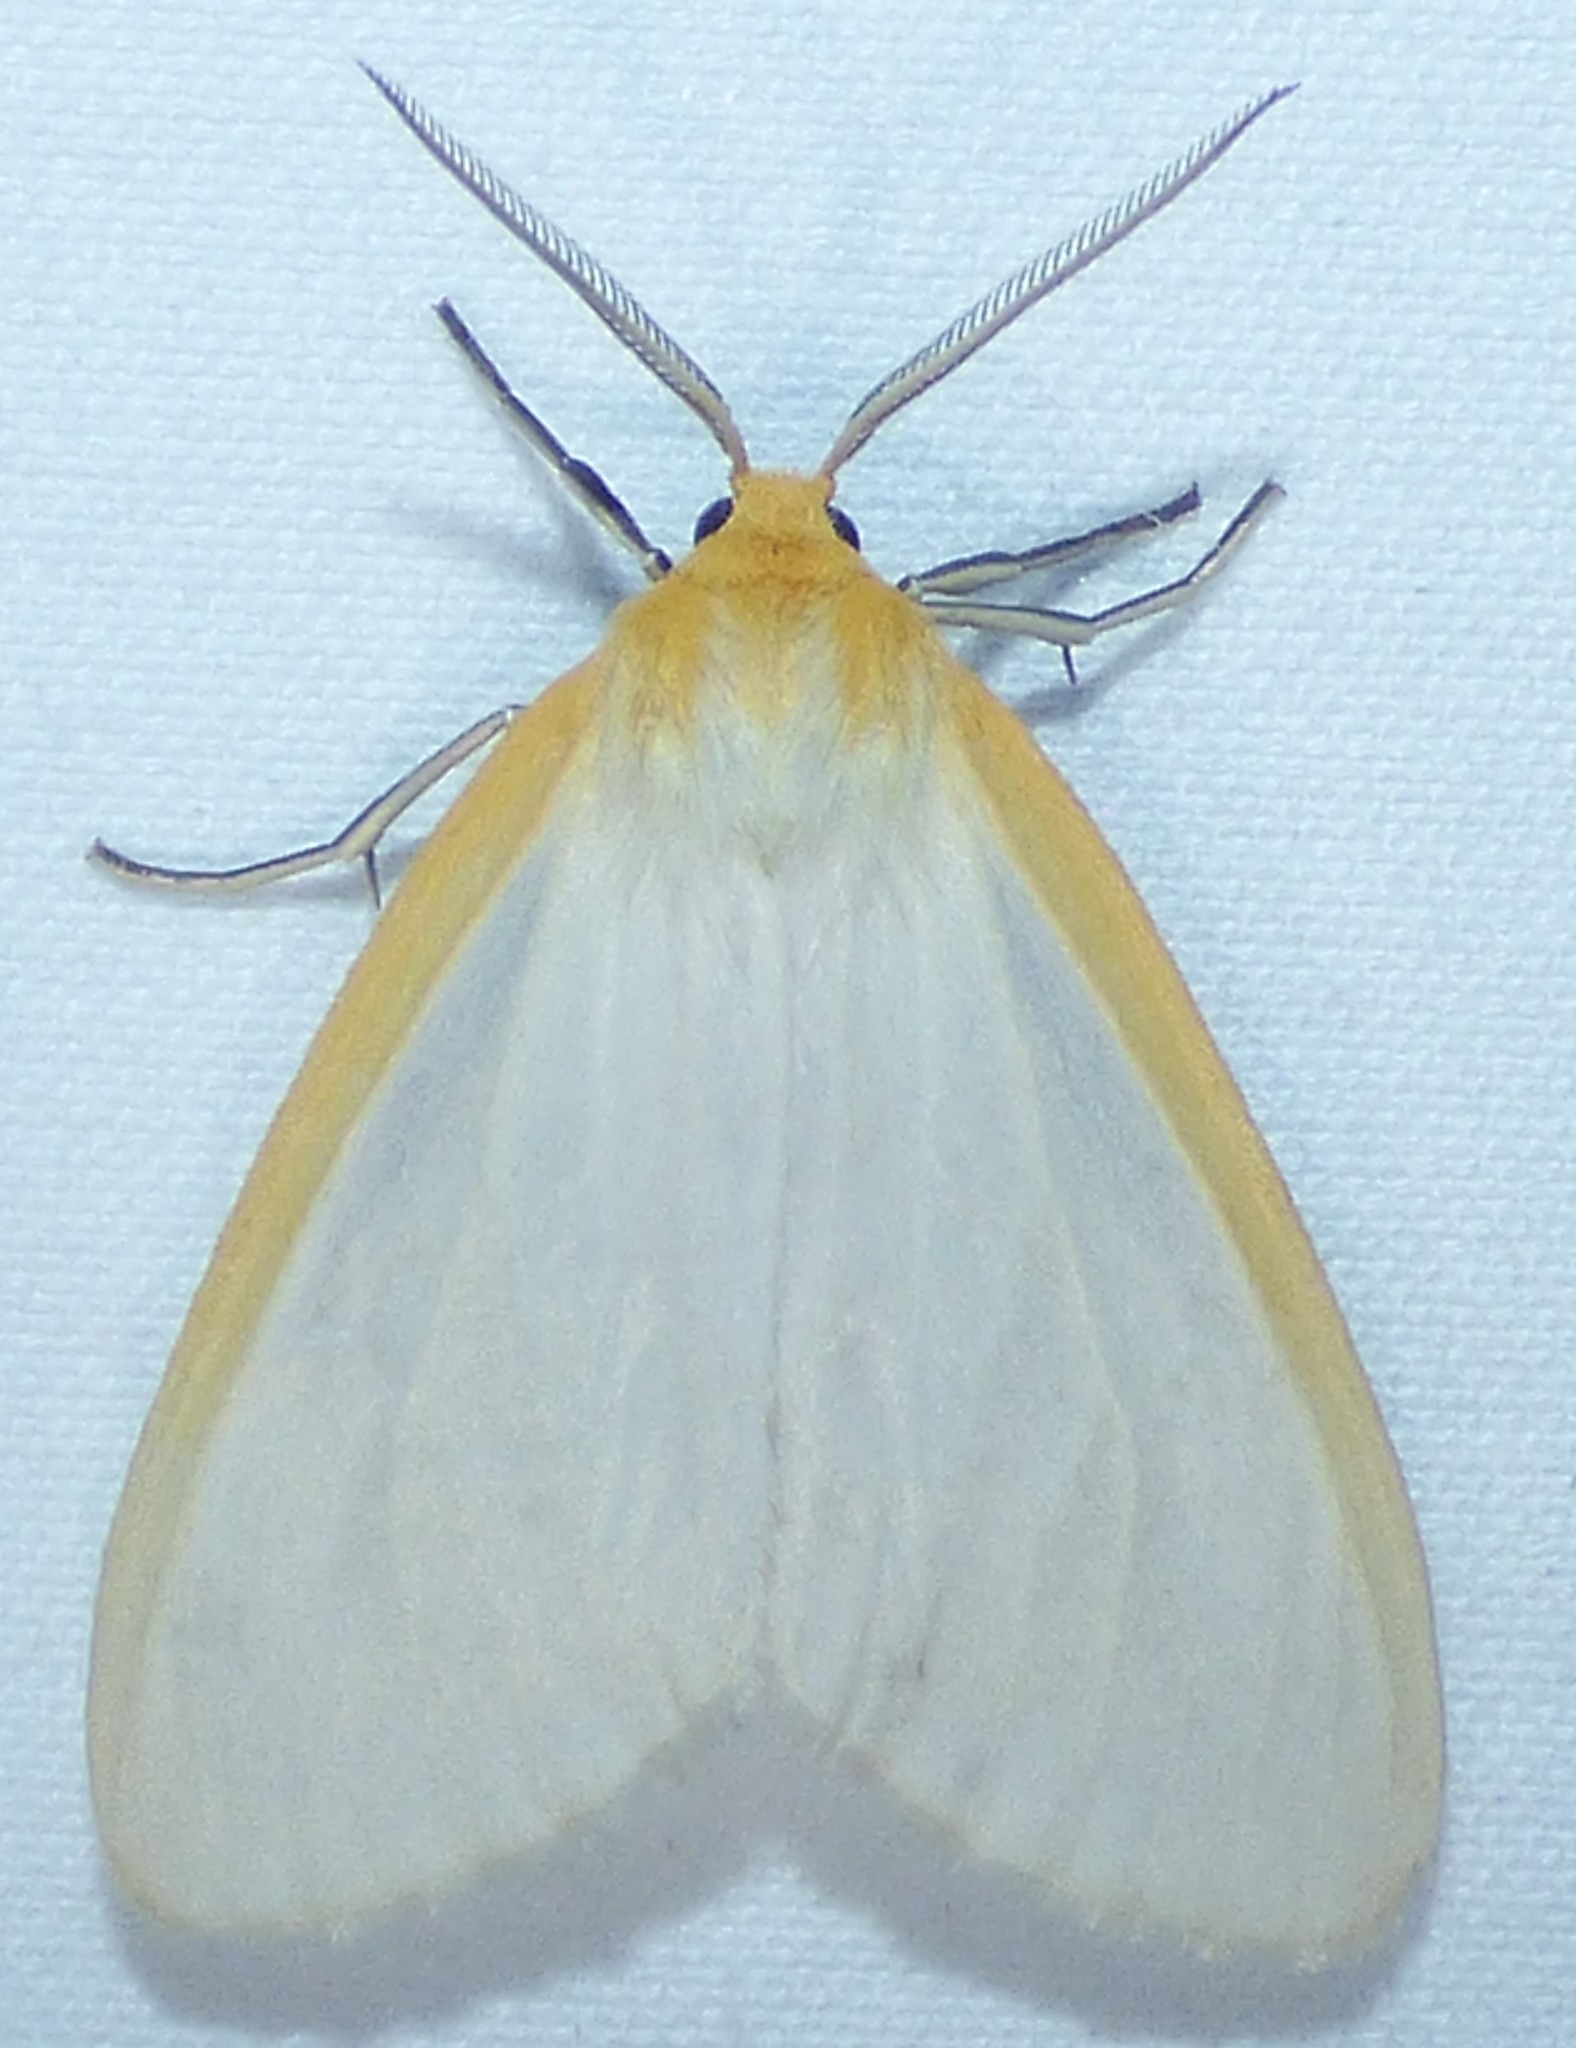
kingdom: Animalia
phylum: Arthropoda
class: Insecta
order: Lepidoptera
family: Erebidae
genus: Cycnia
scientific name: Cycnia tenera
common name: Delicate cycnia moth
